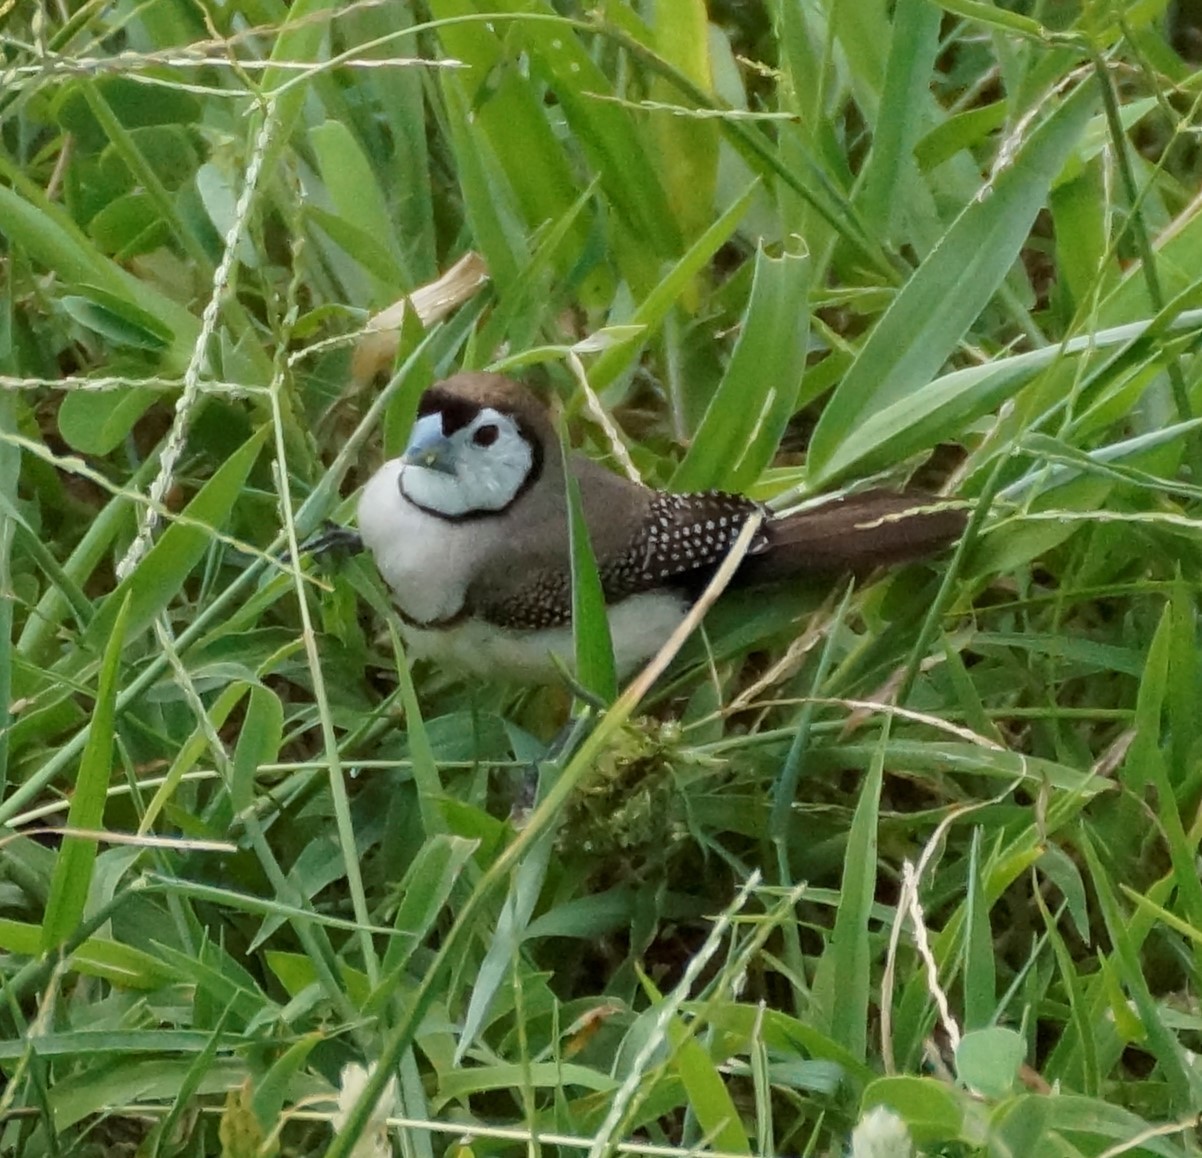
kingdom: Animalia
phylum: Chordata
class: Aves
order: Passeriformes
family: Estrildidae
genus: Taeniopygia
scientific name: Taeniopygia bichenovii
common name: Double-barred finch
